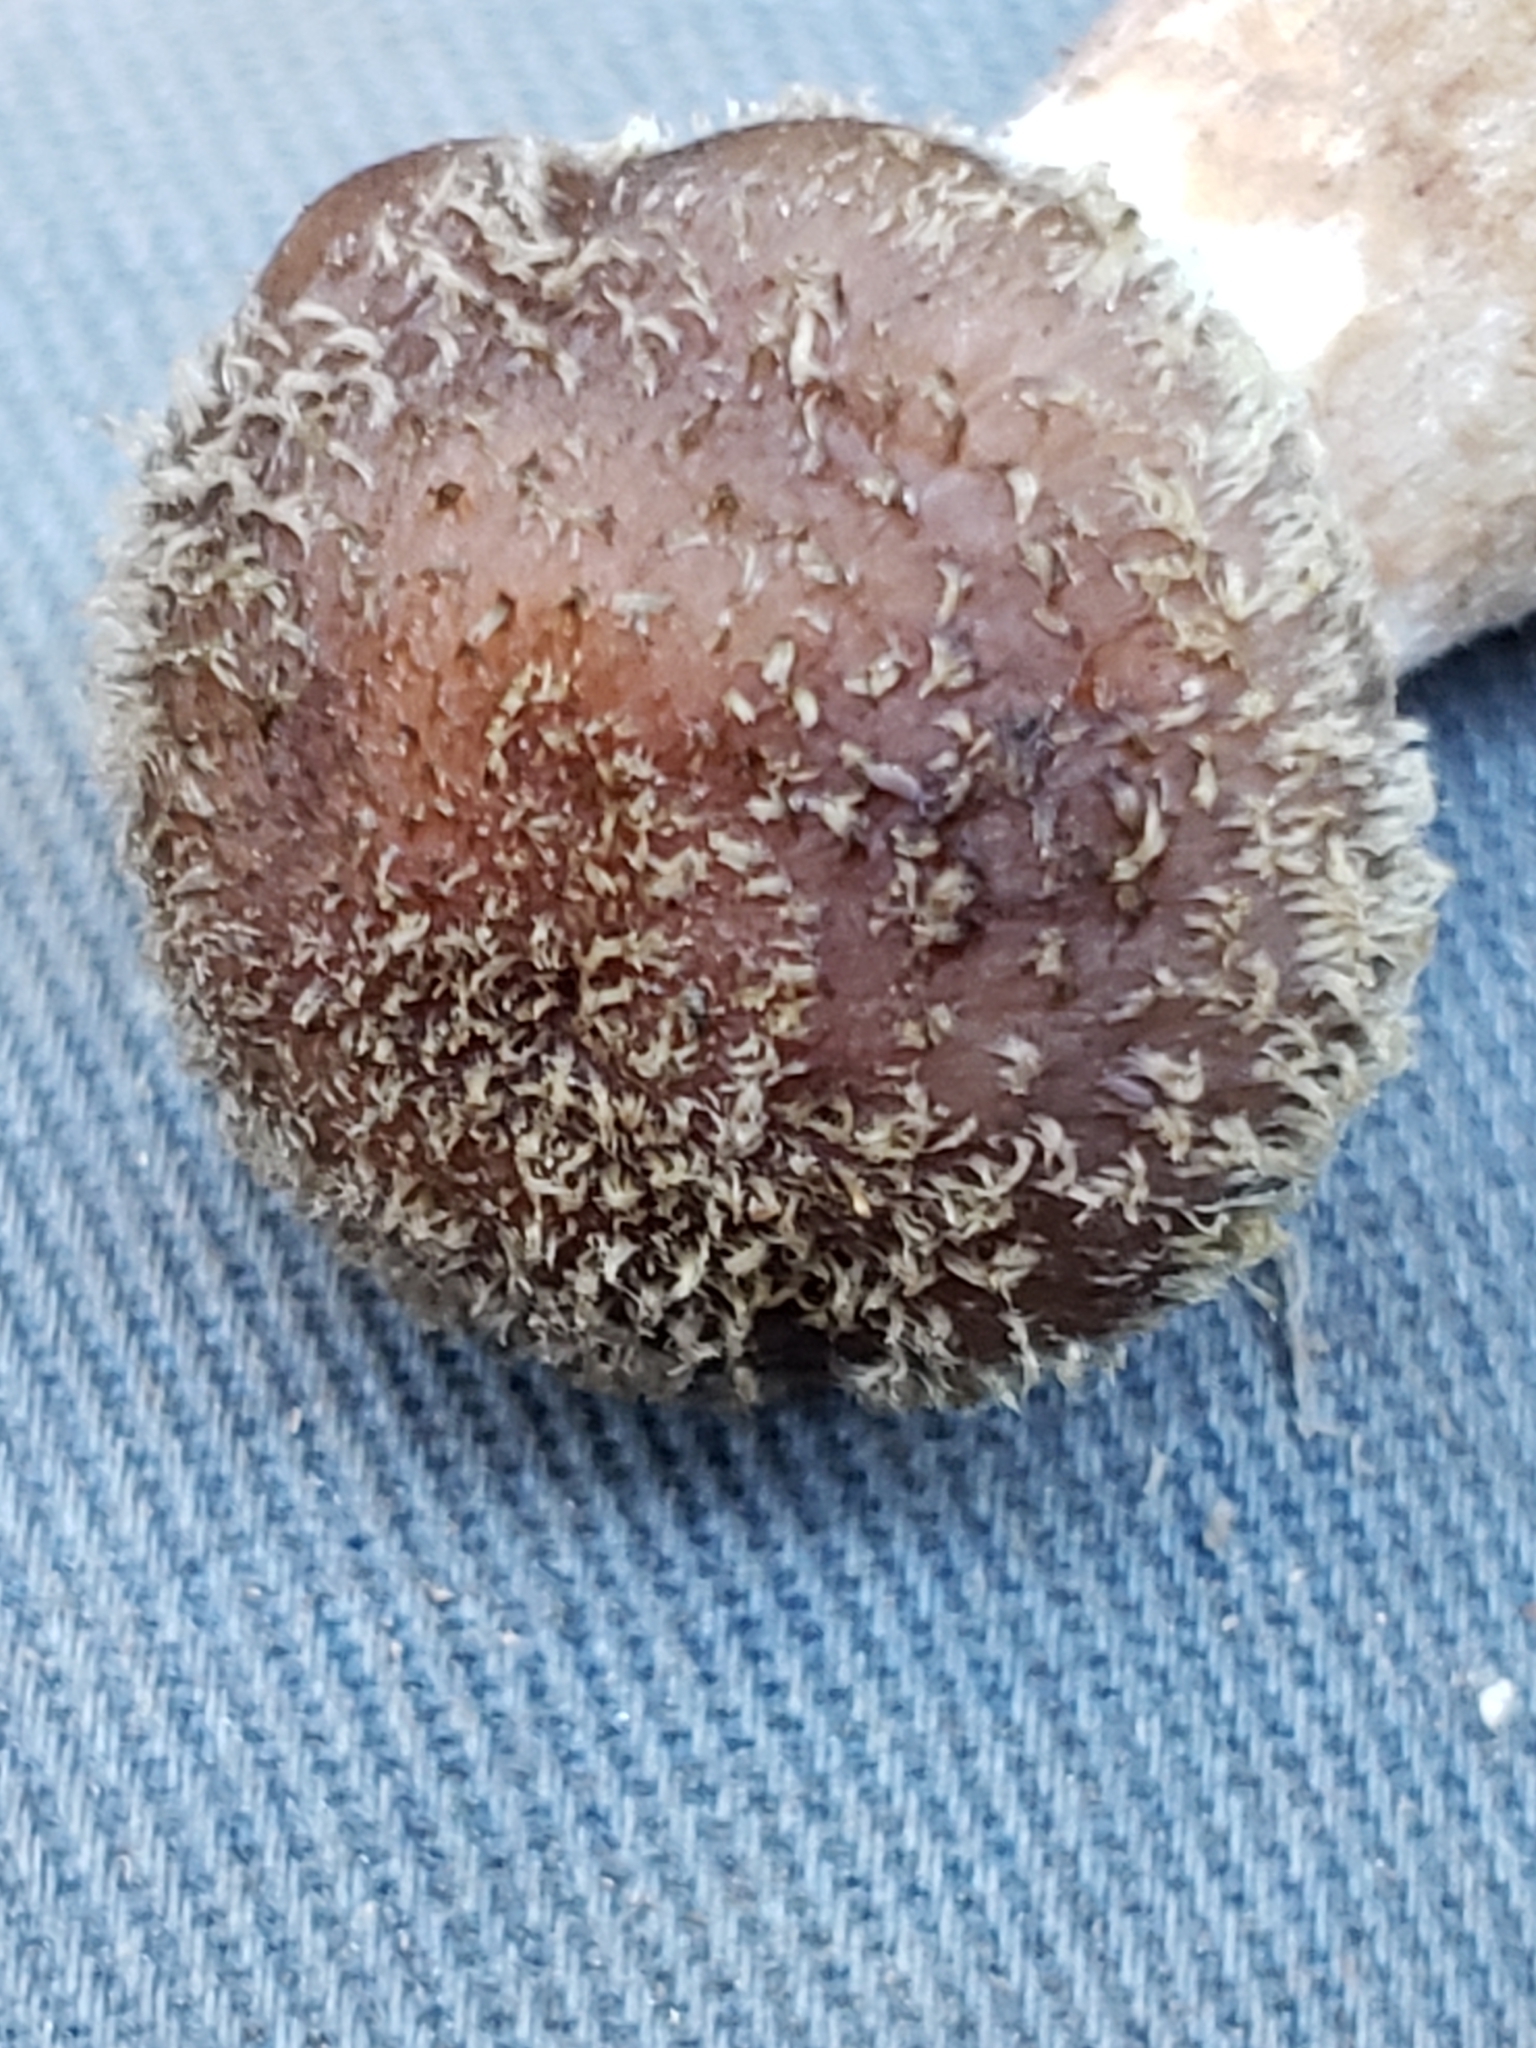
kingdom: Fungi
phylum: Basidiomycota
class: Agaricomycetes
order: Agaricales
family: Physalacriaceae
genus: Armillaria
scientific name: Armillaria sinapina
